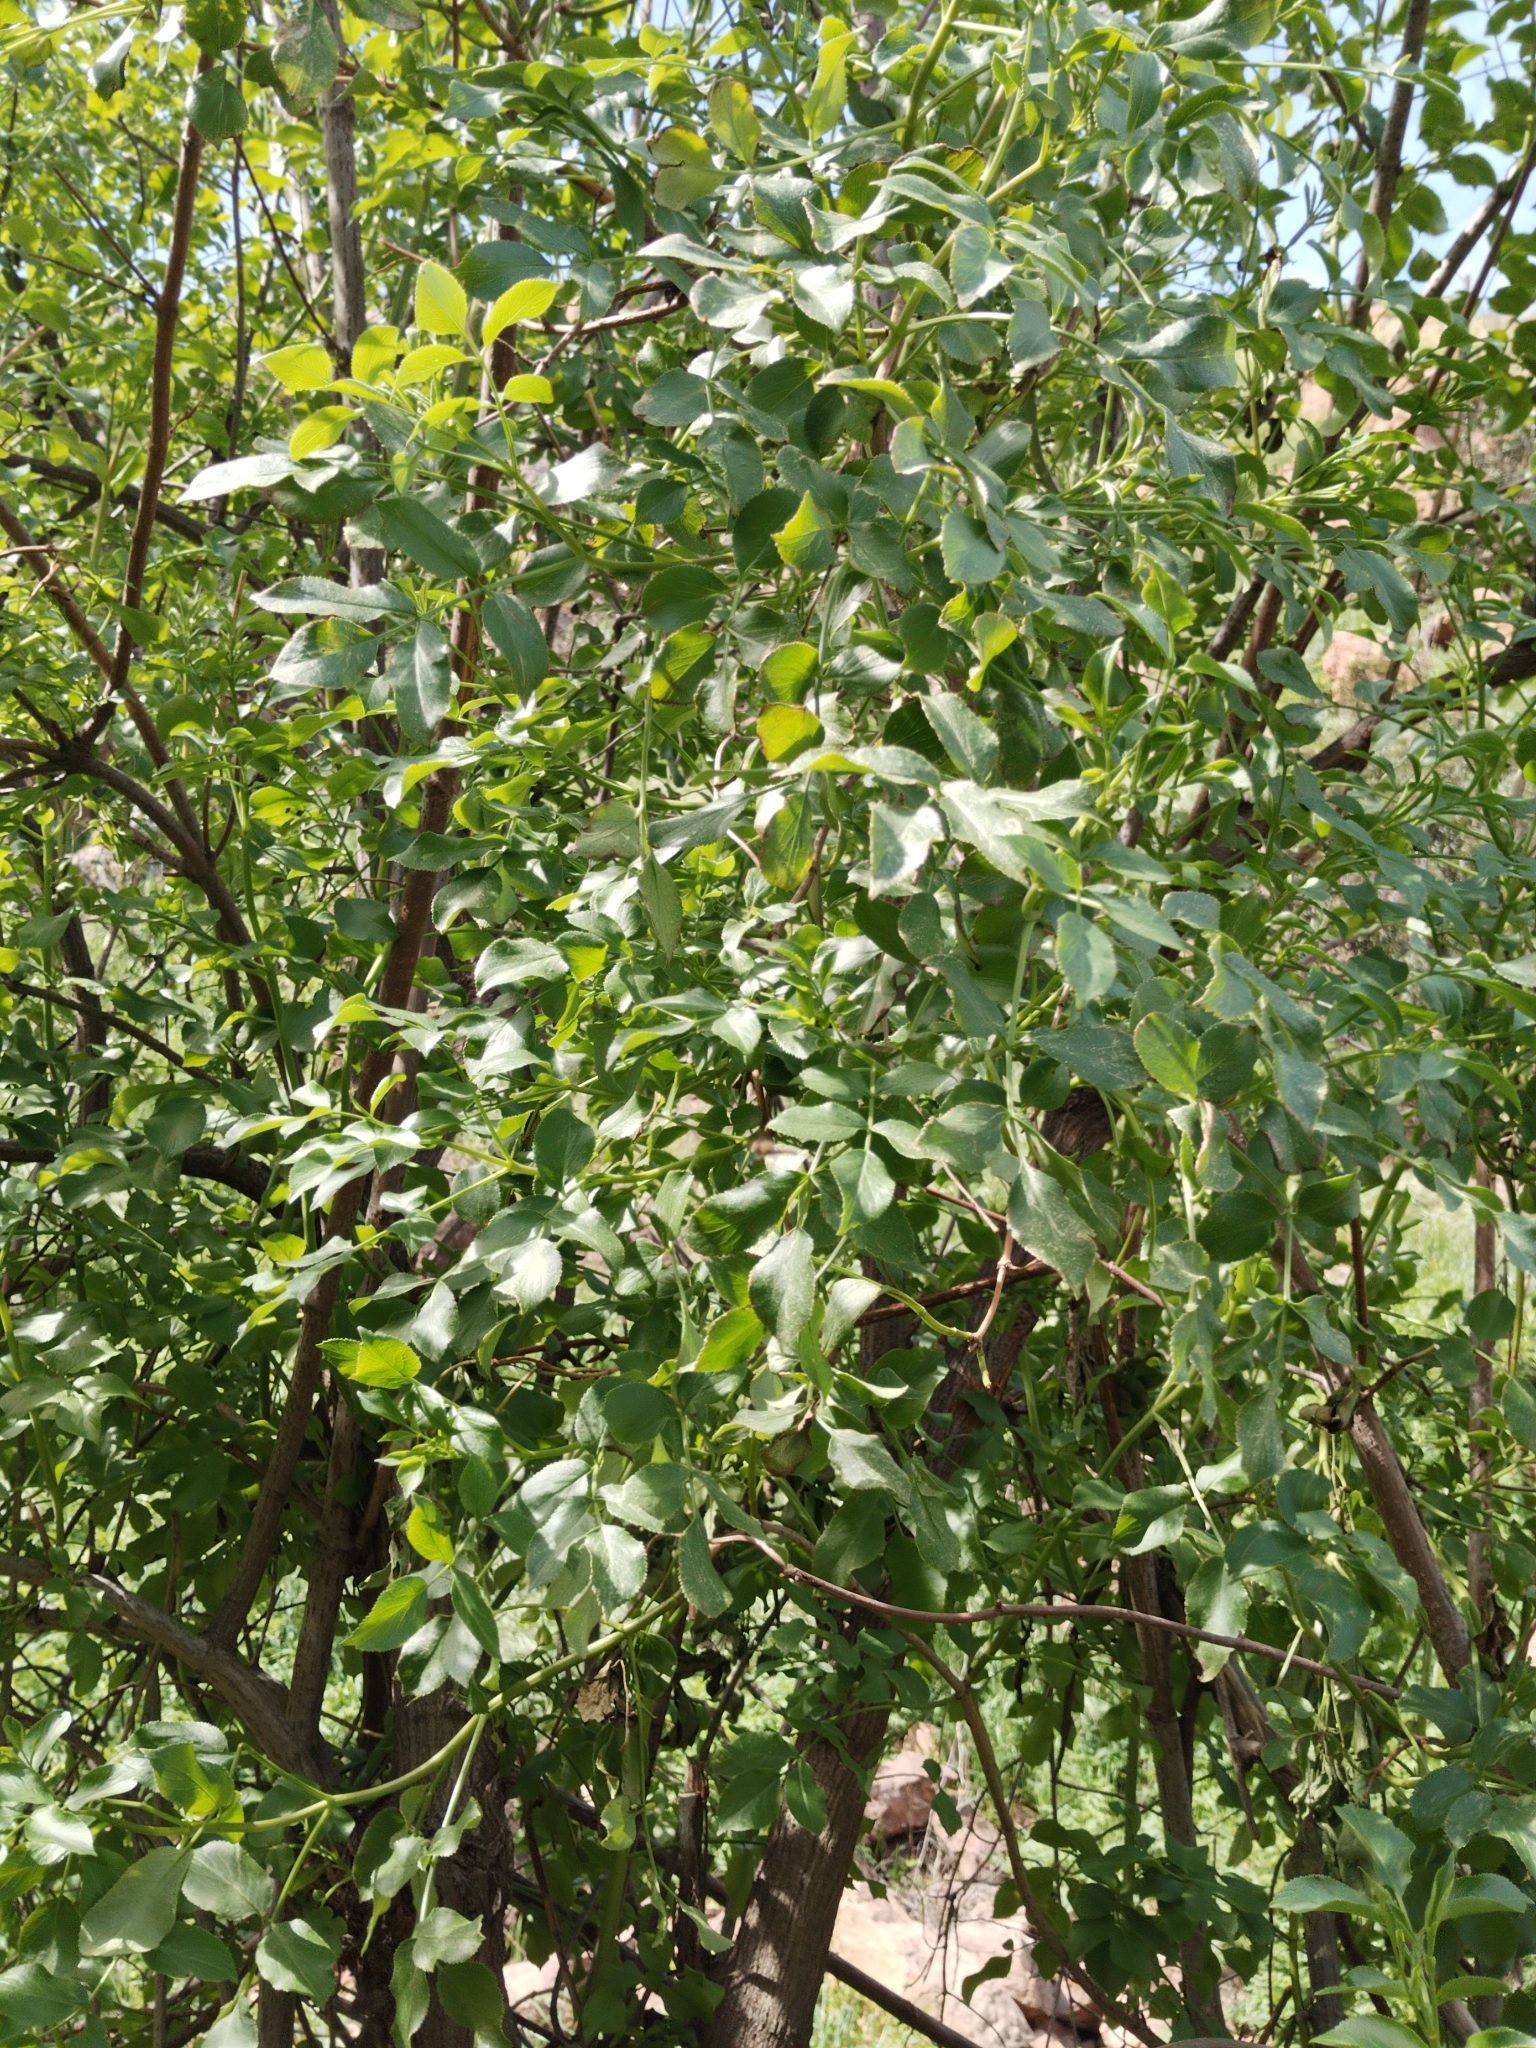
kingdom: Plantae
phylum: Tracheophyta
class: Magnoliopsida
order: Dipsacales
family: Viburnaceae
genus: Sambucus
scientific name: Sambucus cerulea
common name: Blue elder
